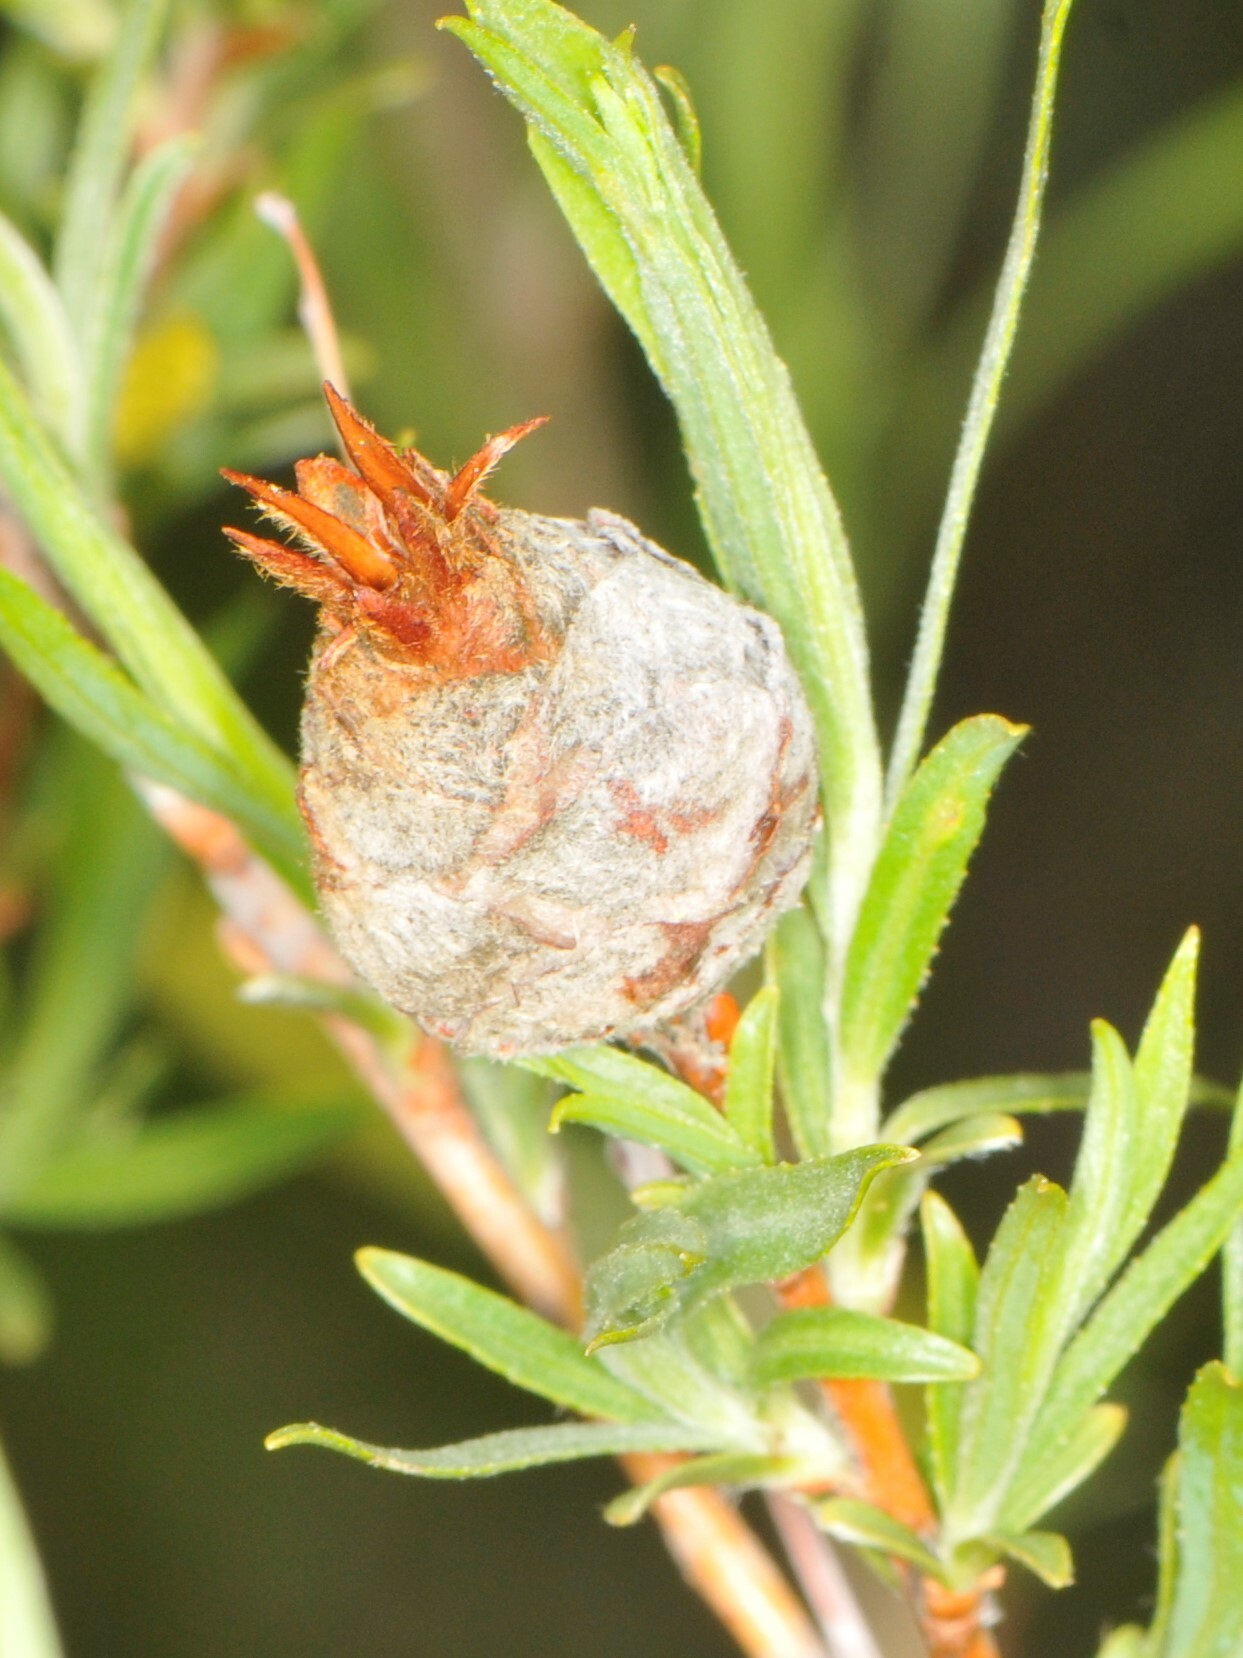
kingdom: Animalia
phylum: Arthropoda
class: Insecta
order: Diptera
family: Cecidomyiidae
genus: Rabdophaga
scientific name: Rabdophaga strobiloides
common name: Willow pinecone gall midge
